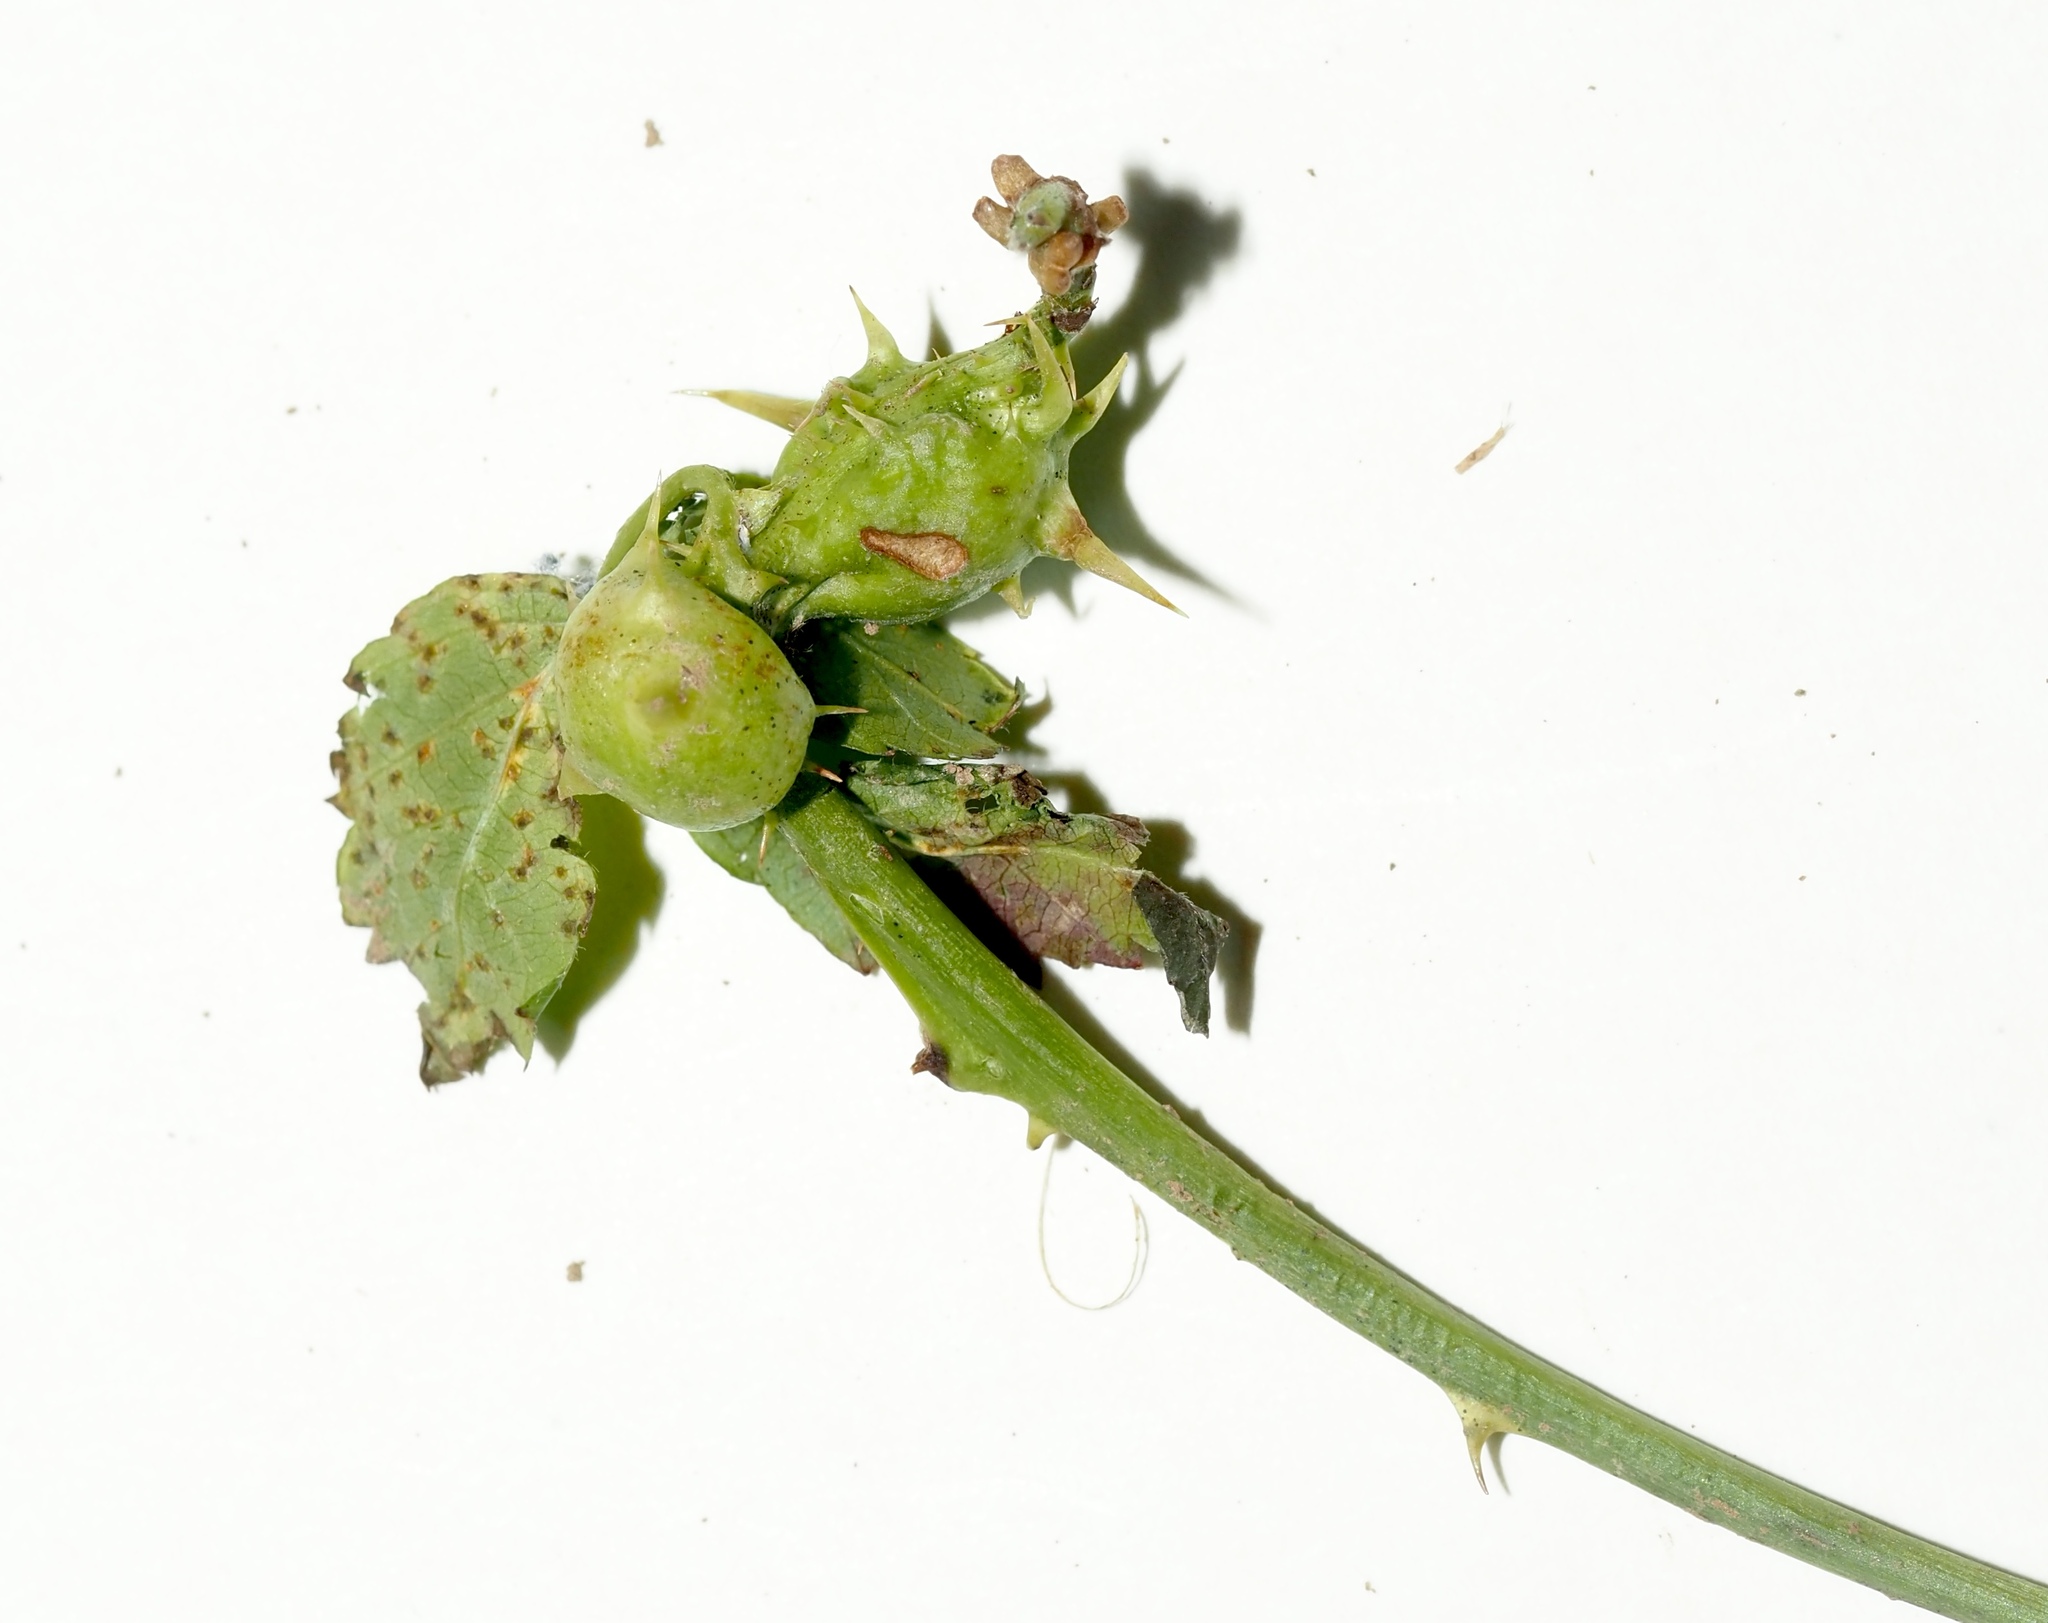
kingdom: Animalia
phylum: Arthropoda
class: Insecta
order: Hymenoptera
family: Cynipidae
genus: Diastrophus
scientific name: Diastrophus
